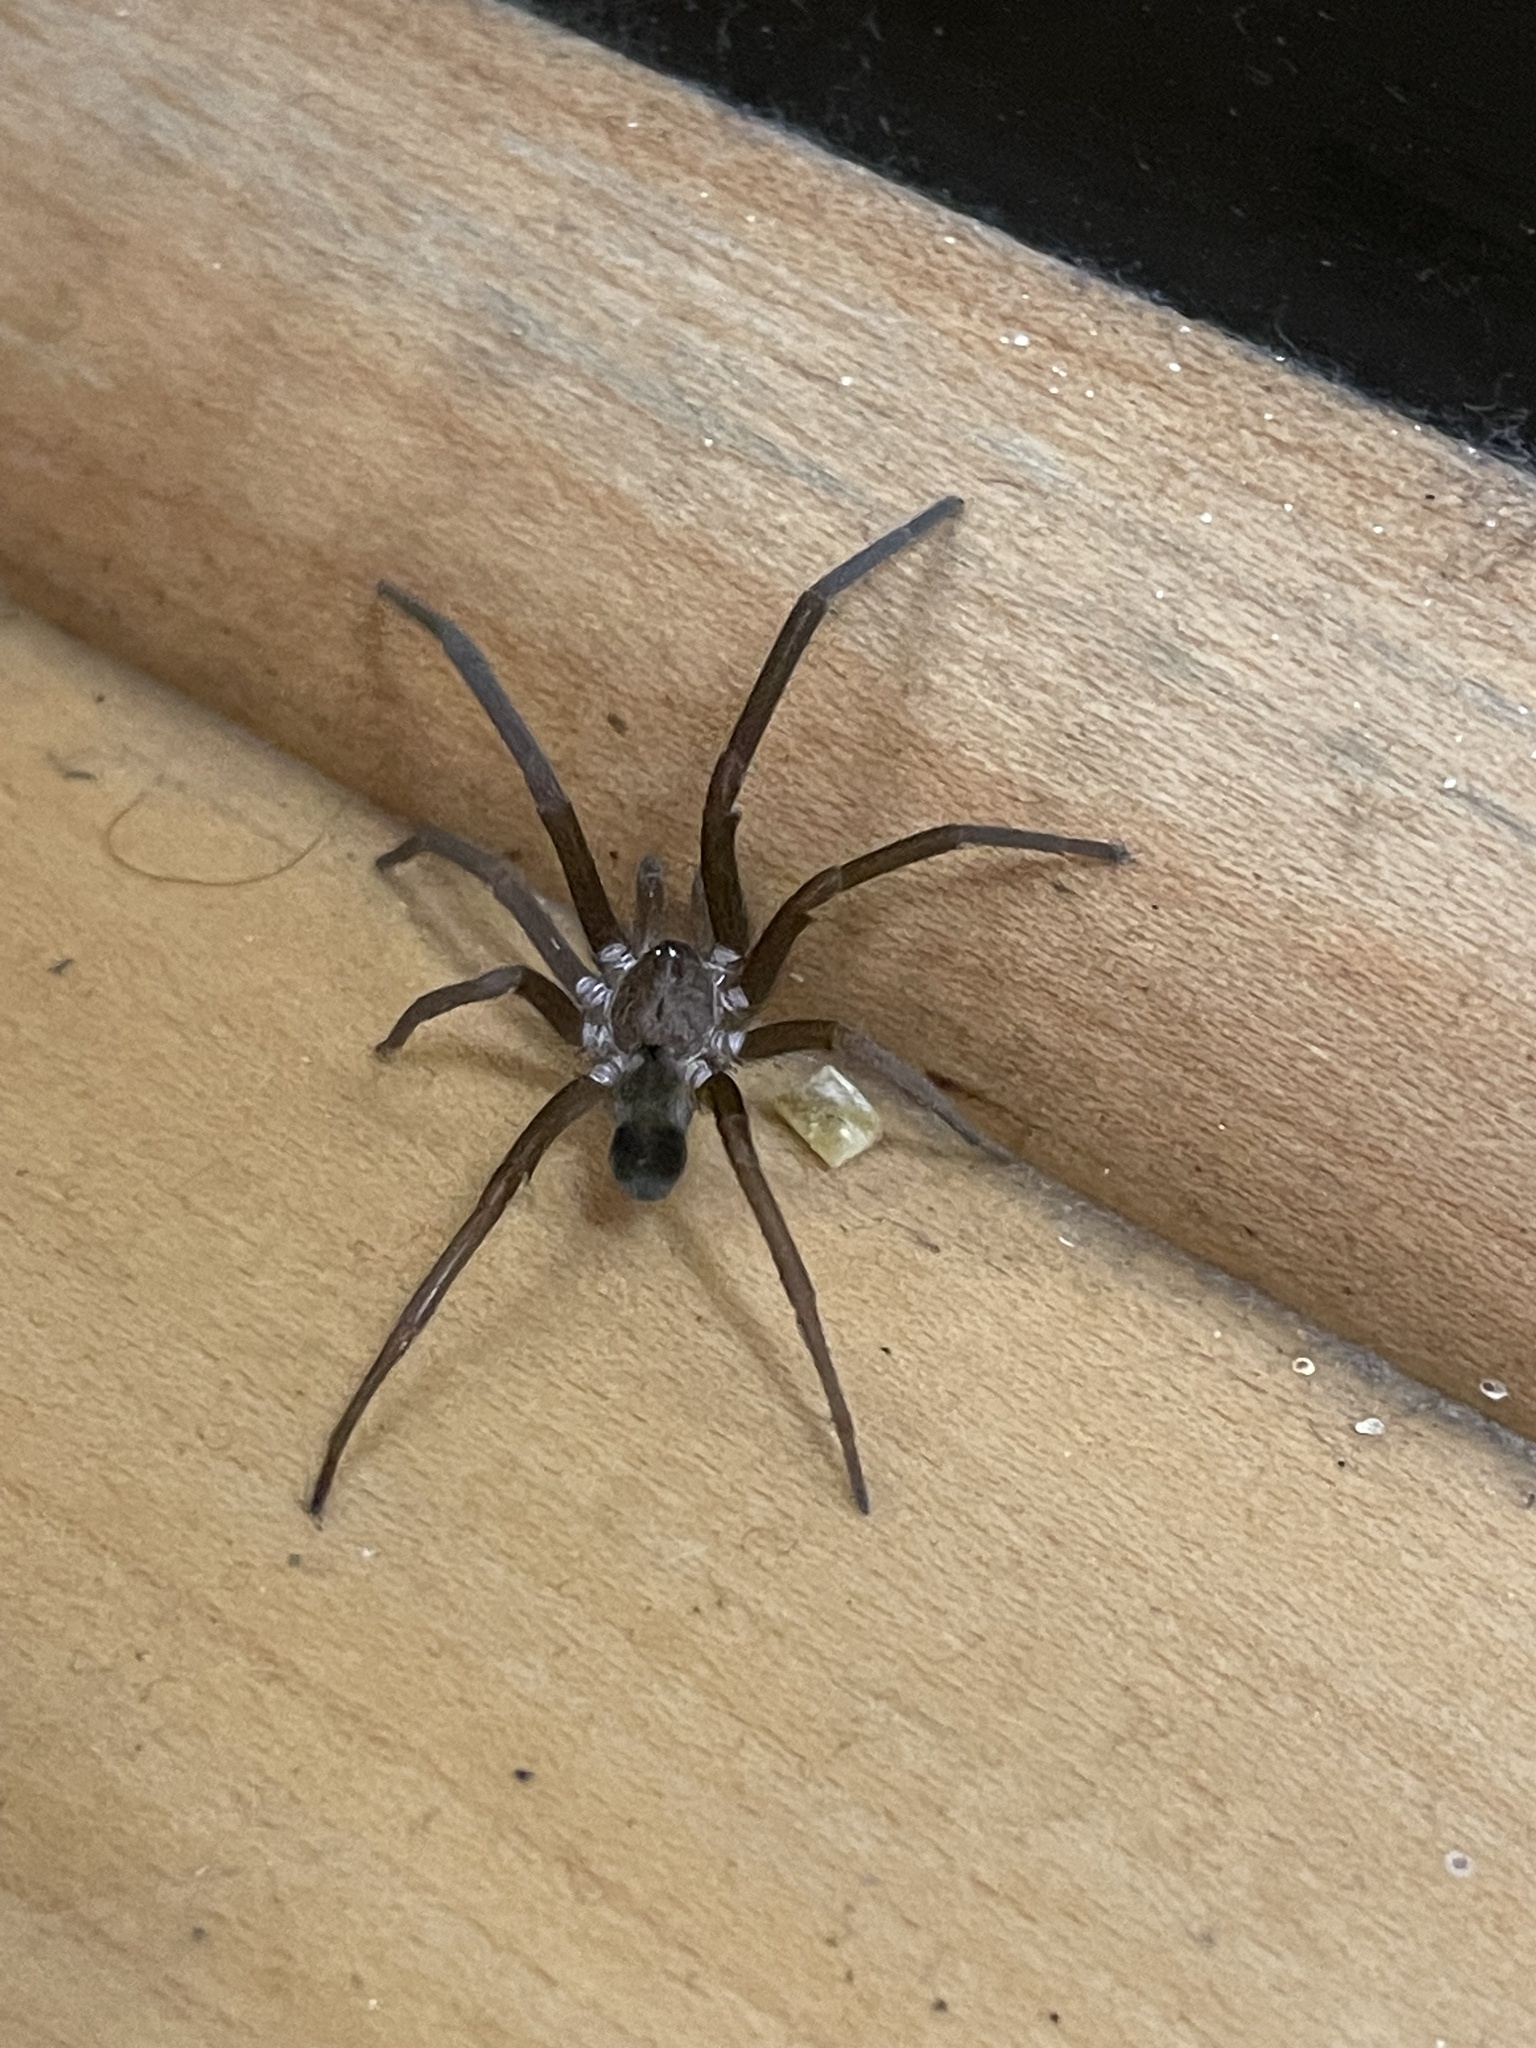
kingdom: Animalia
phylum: Arthropoda
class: Arachnida
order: Araneae
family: Filistatidae
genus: Kukulcania
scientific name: Kukulcania hibernalis
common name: Crevice weaver
